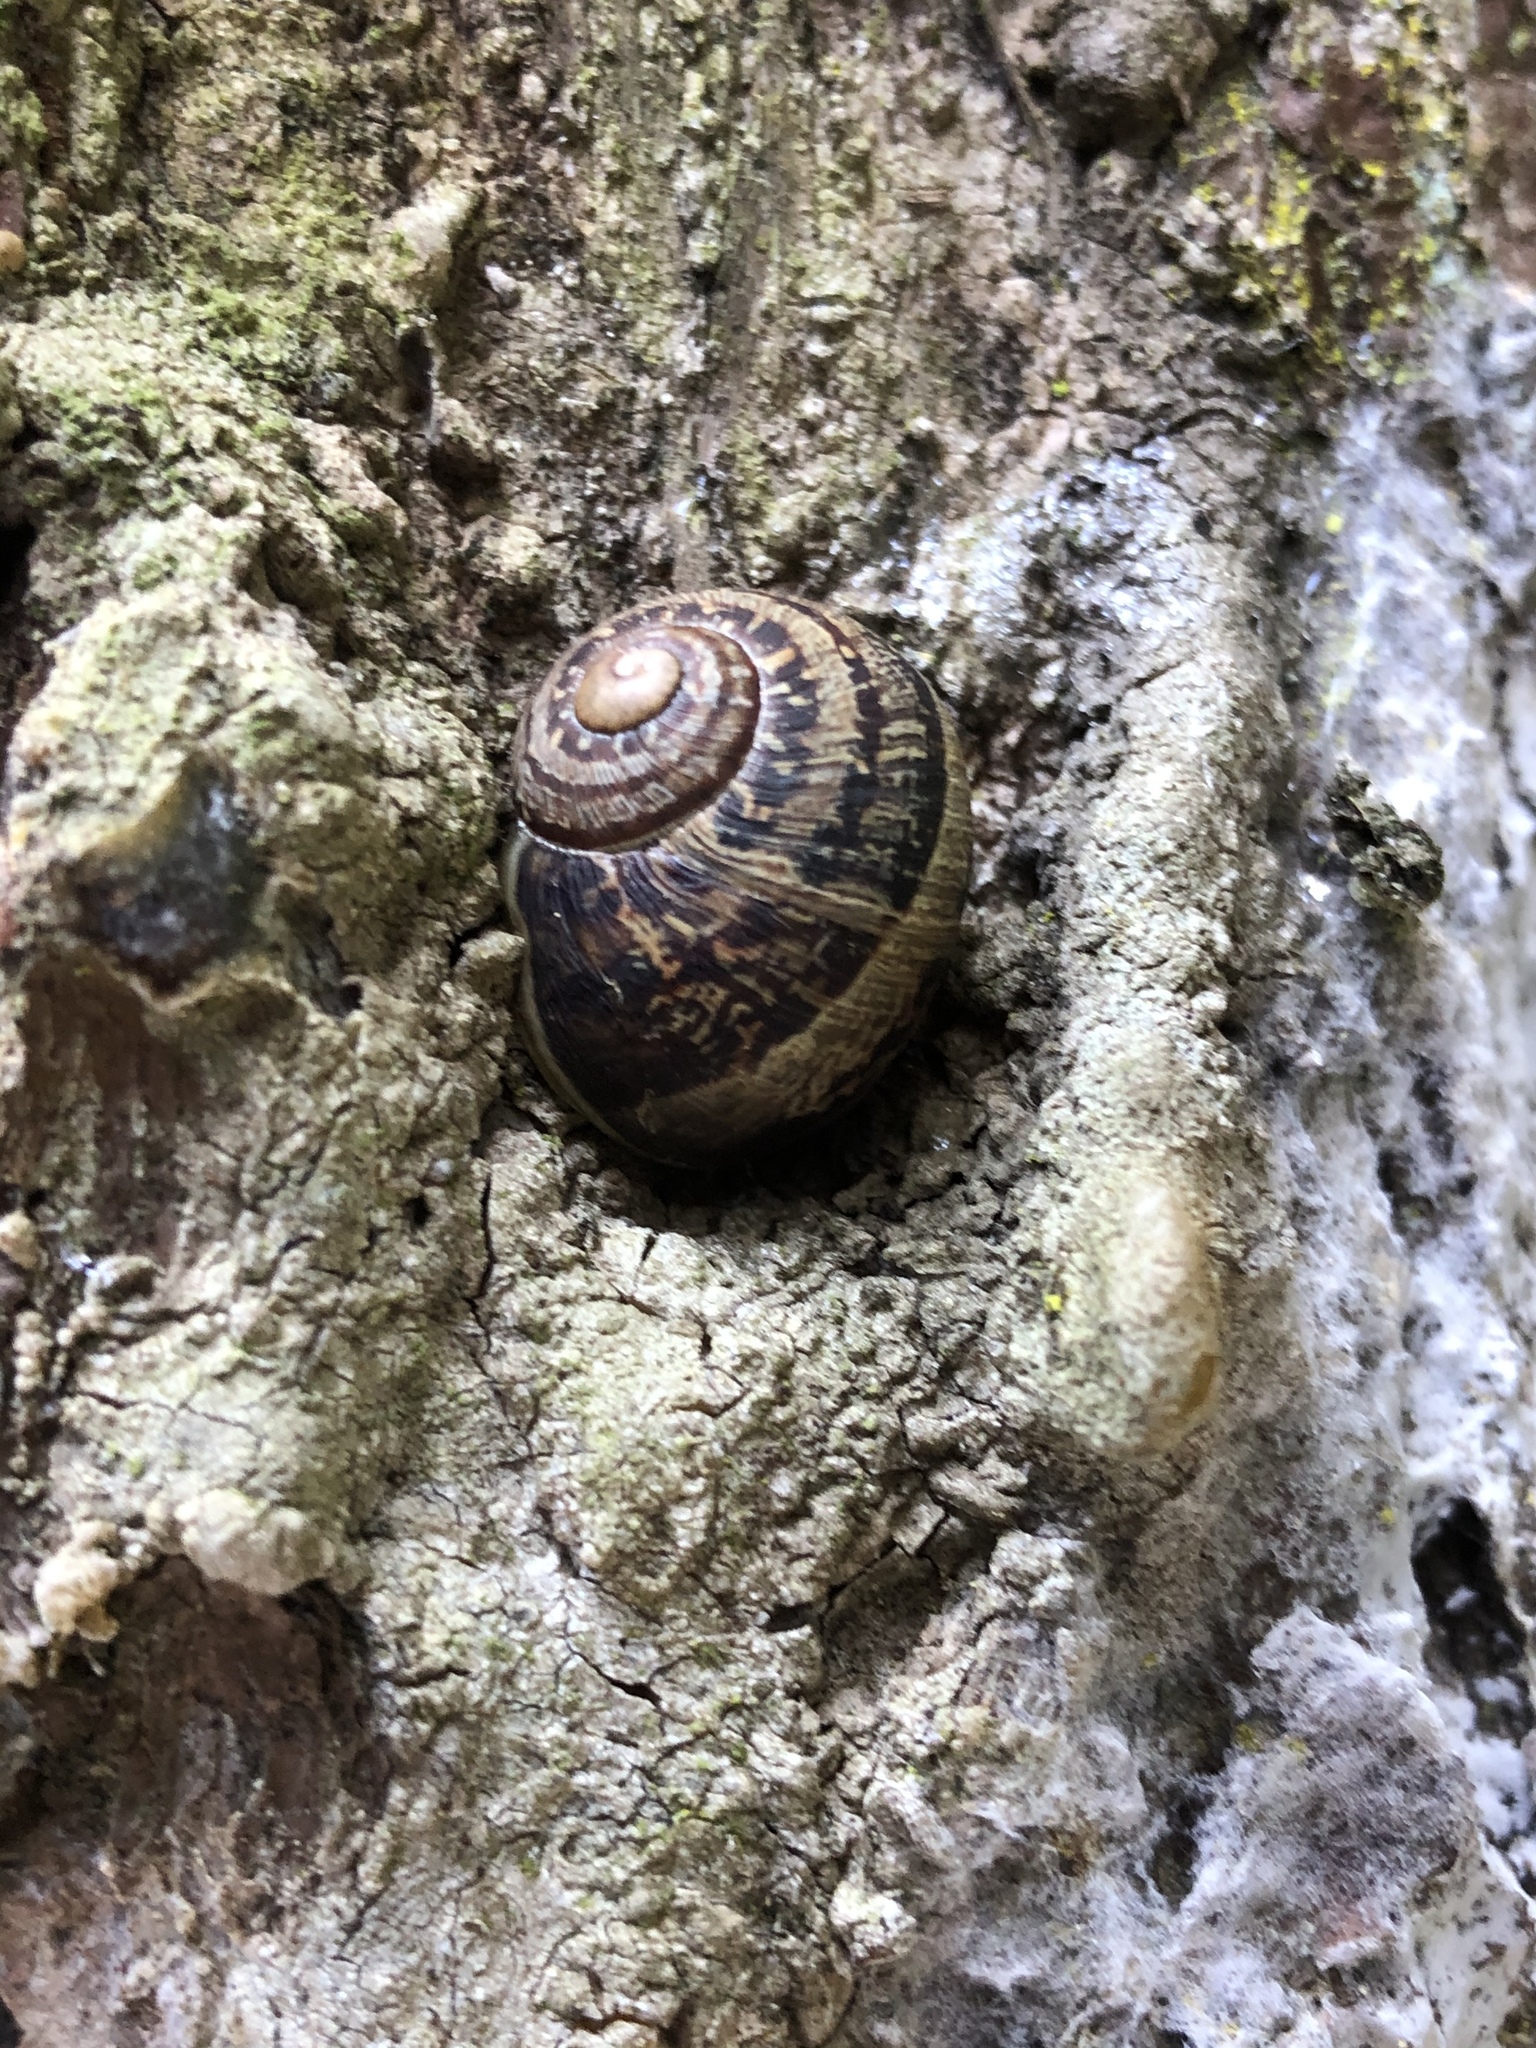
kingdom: Animalia
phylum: Mollusca
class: Gastropoda
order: Stylommatophora
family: Helicidae
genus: Cornu
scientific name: Cornu aspersum
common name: Brown garden snail
